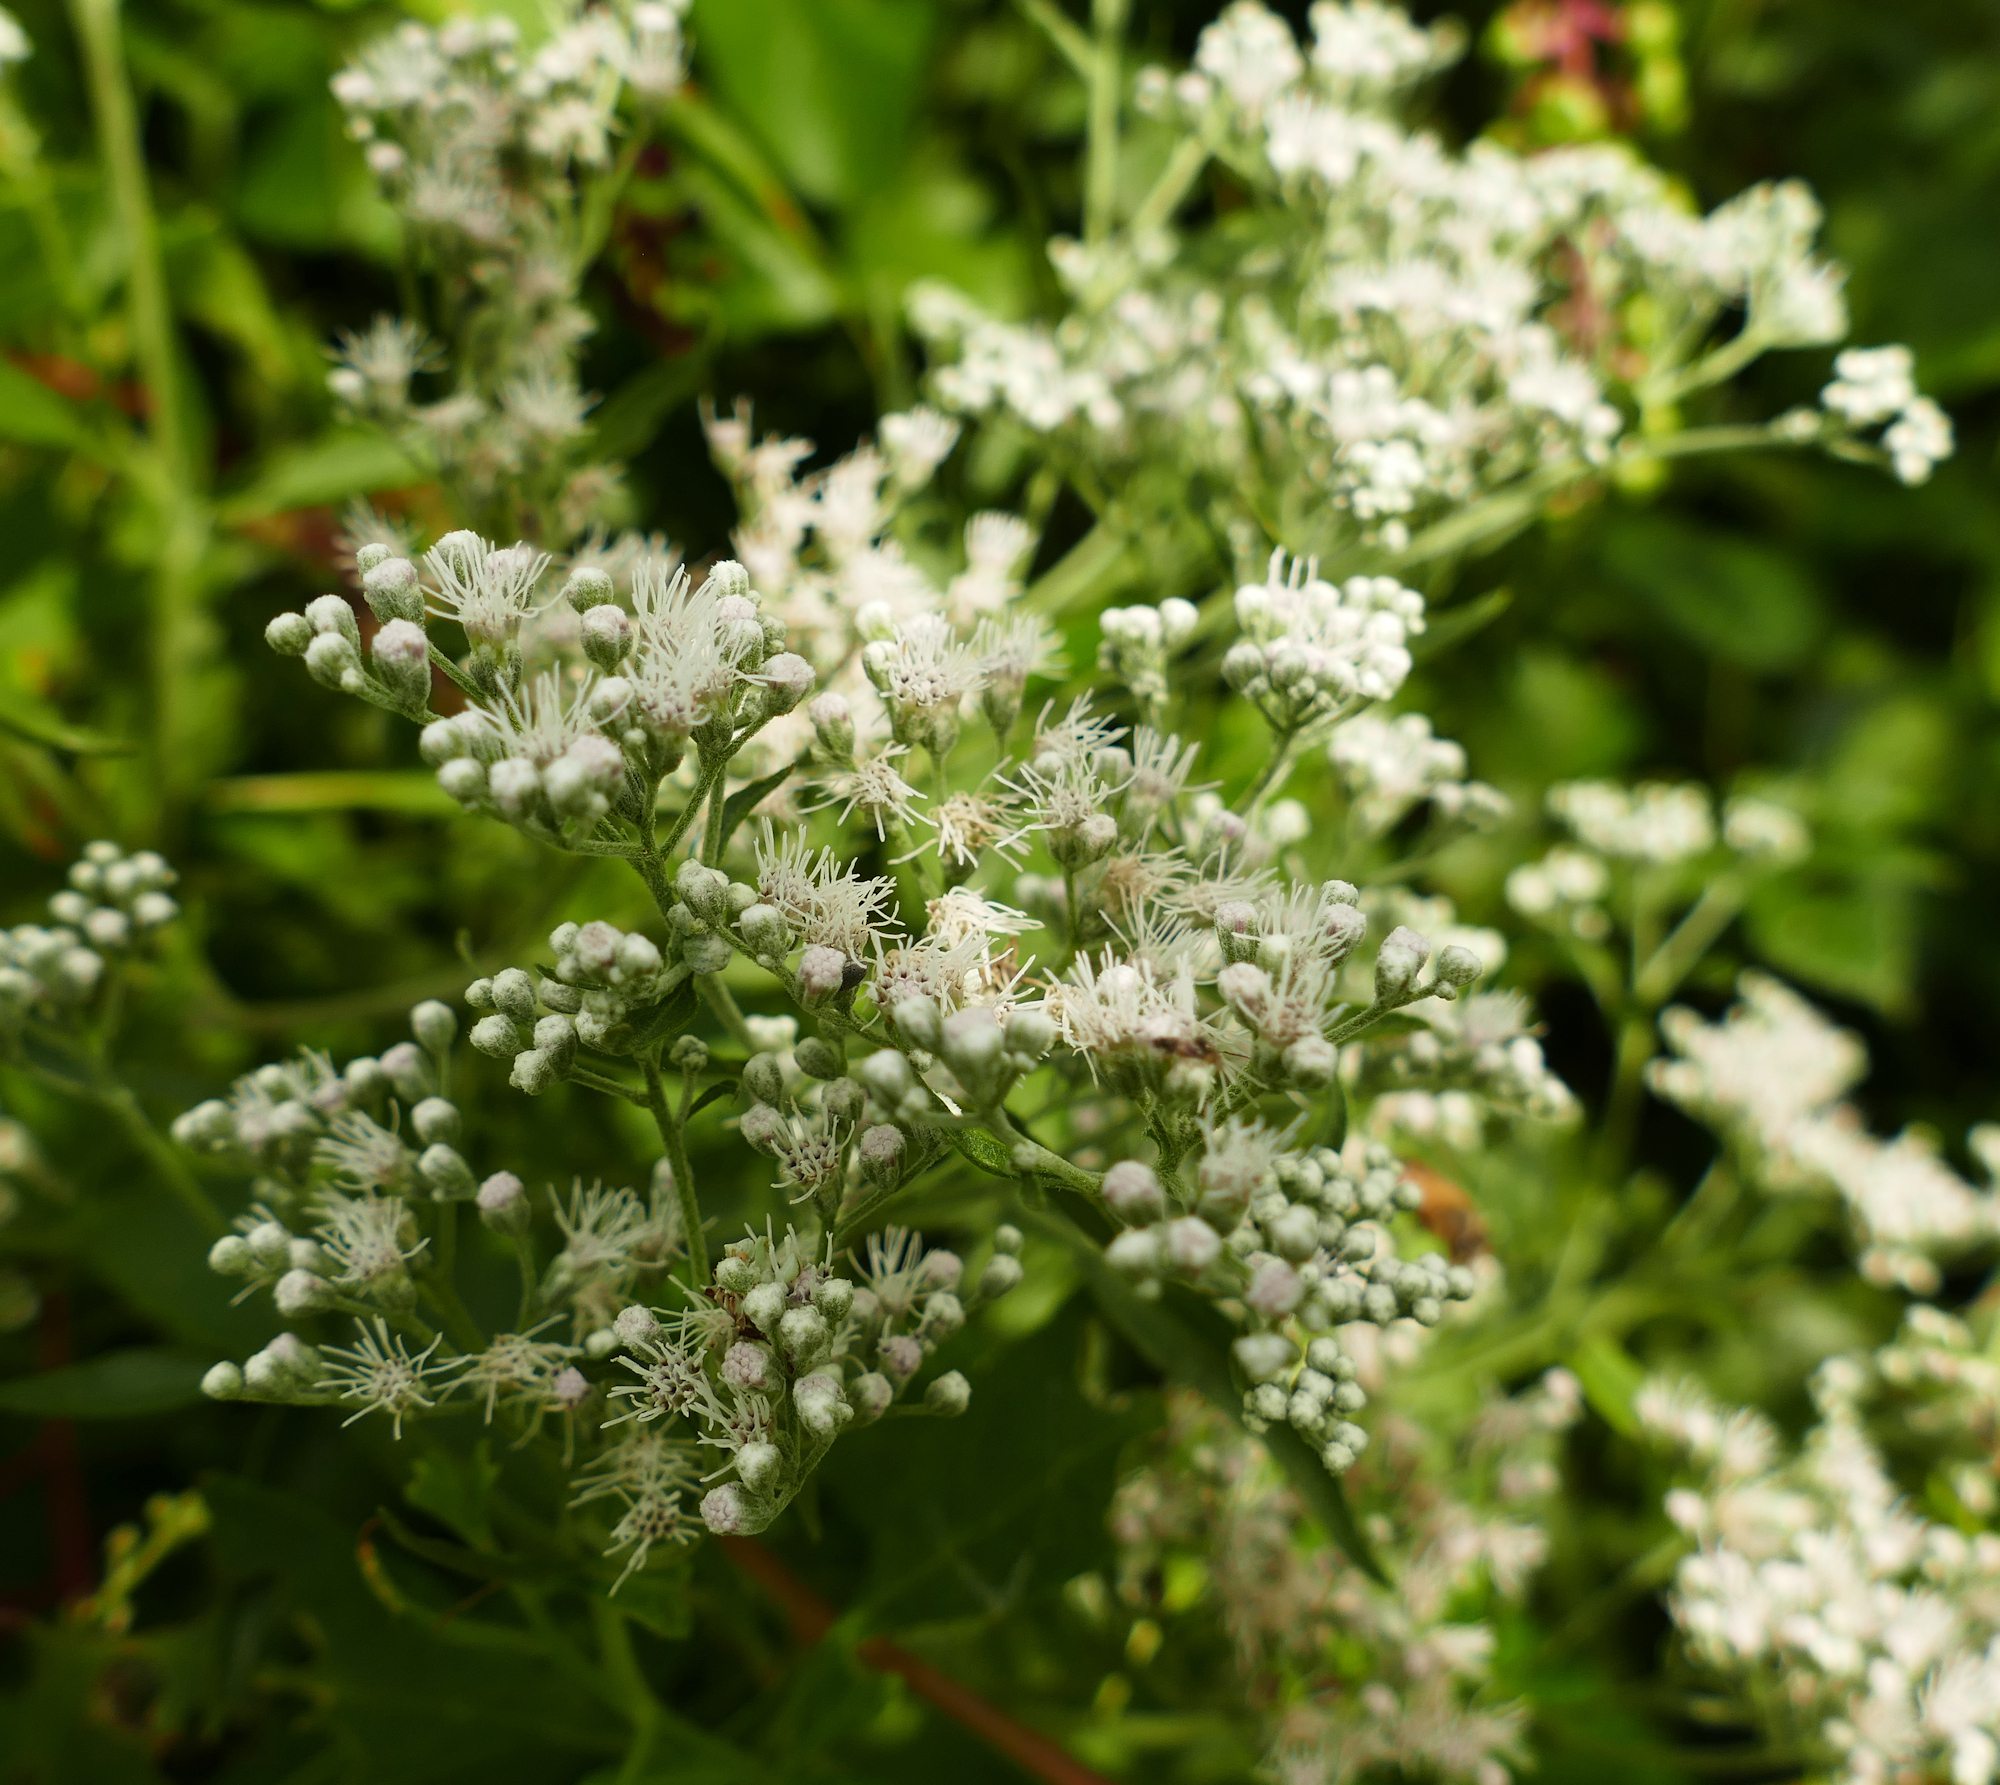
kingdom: Plantae
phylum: Tracheophyta
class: Magnoliopsida
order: Asterales
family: Asteraceae
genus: Eupatorium
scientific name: Eupatorium serotinum
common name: Late boneset
